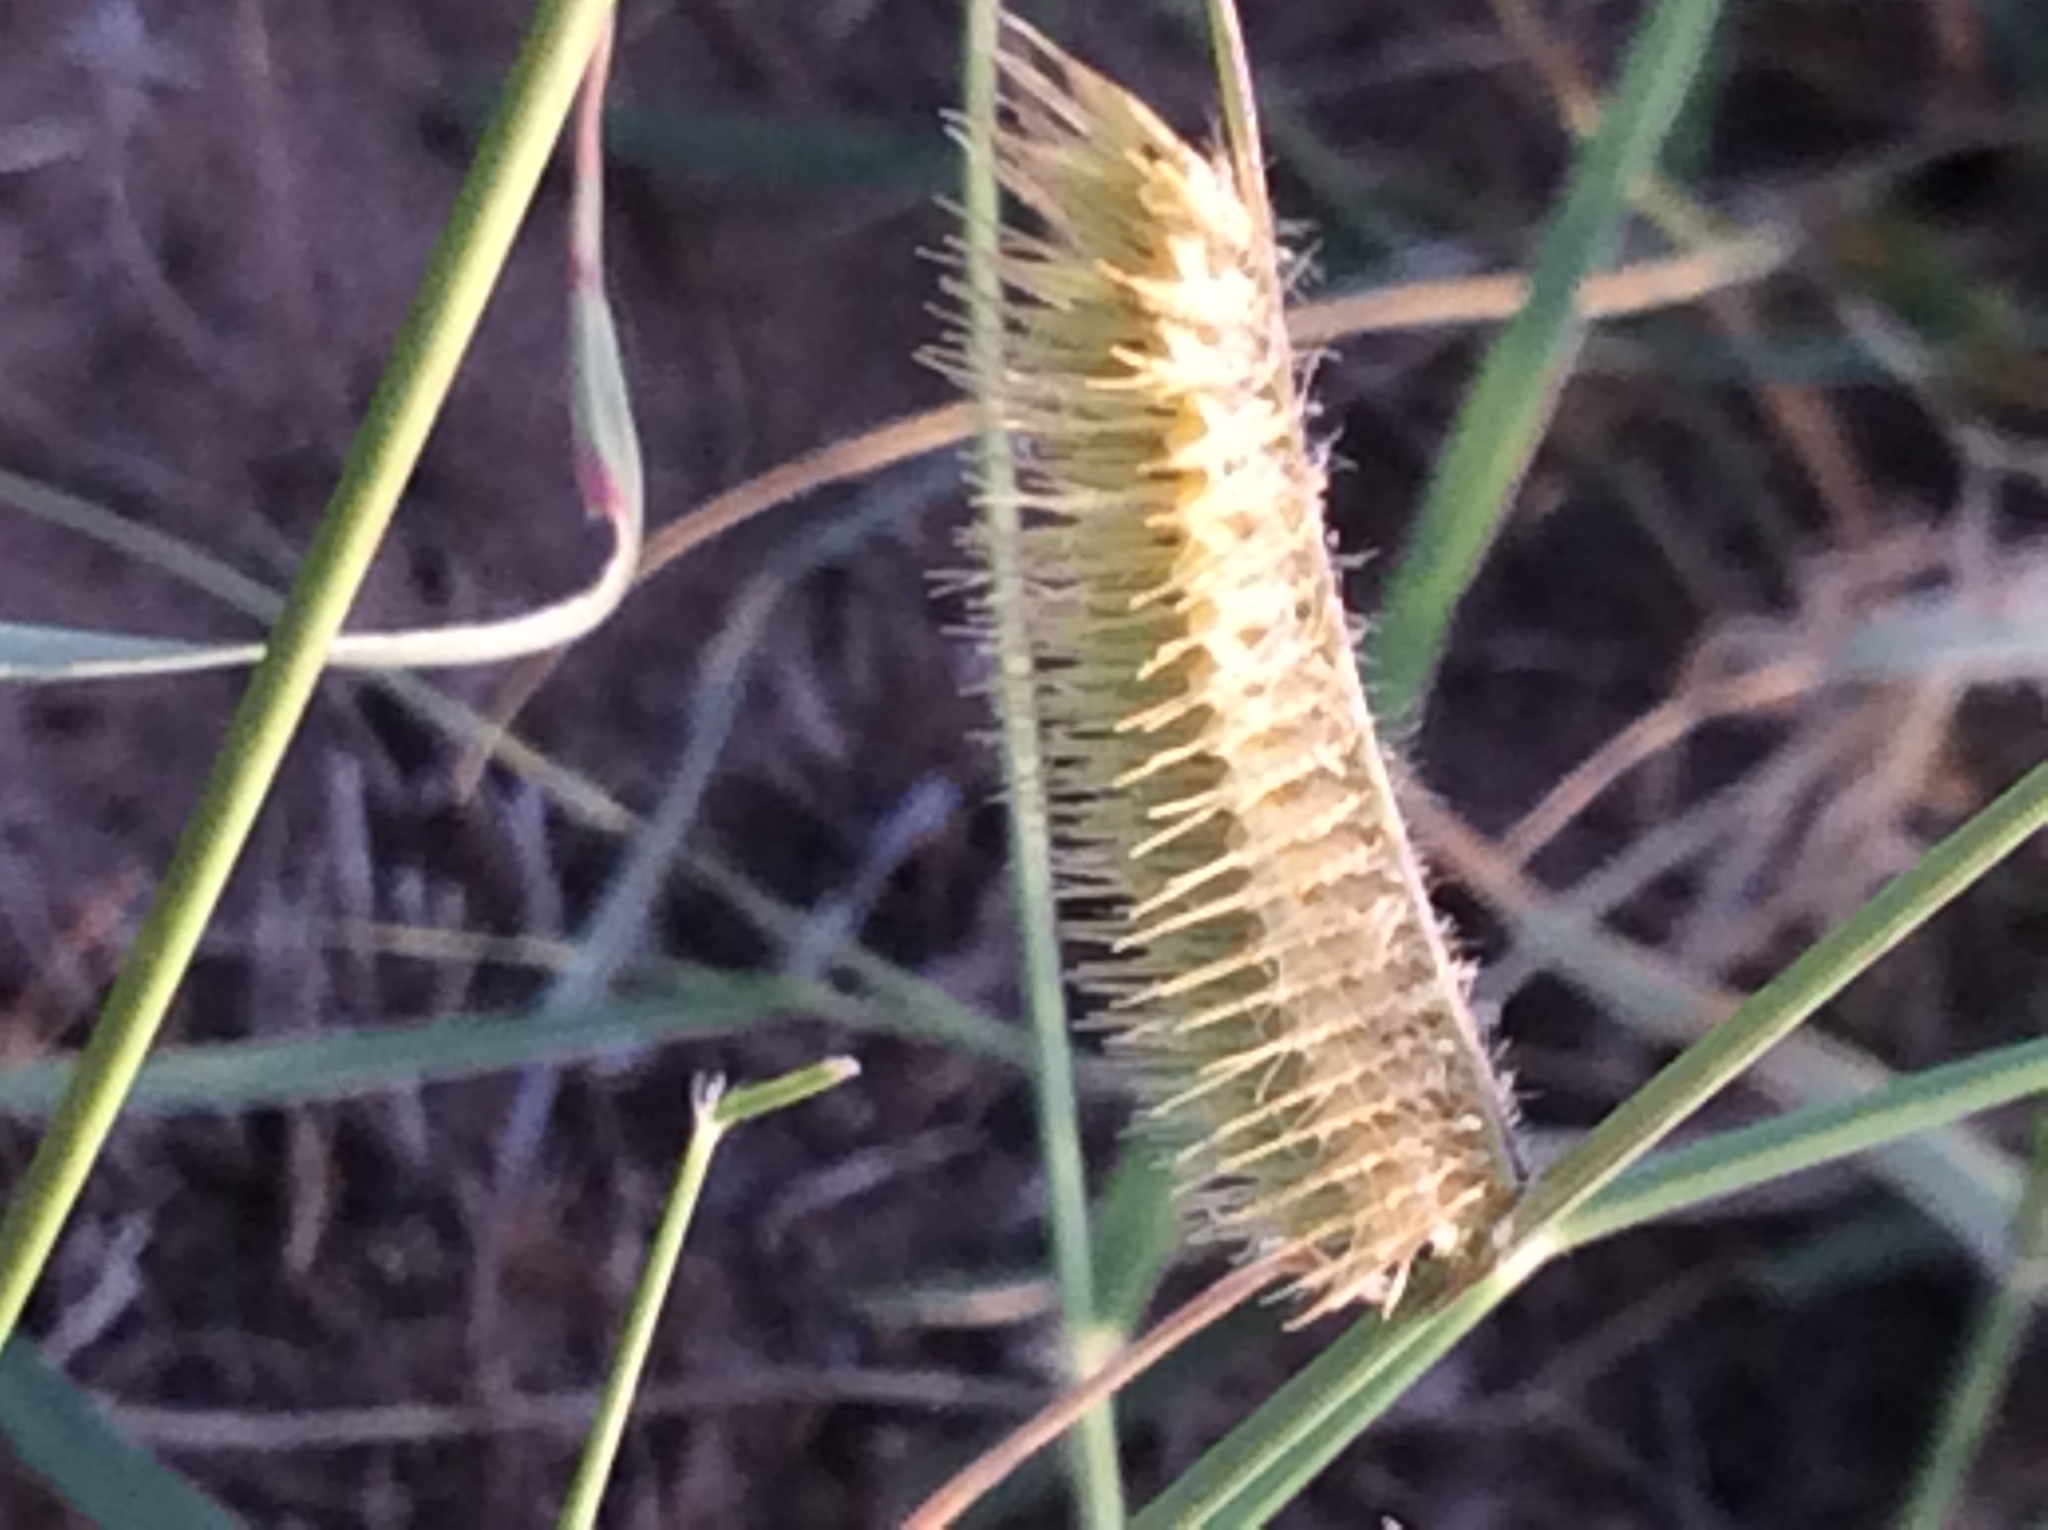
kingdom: Plantae
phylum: Tracheophyta
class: Liliopsida
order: Poales
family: Poaceae
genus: Bouteloua
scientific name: Bouteloua hirsuta
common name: Hairy grama
